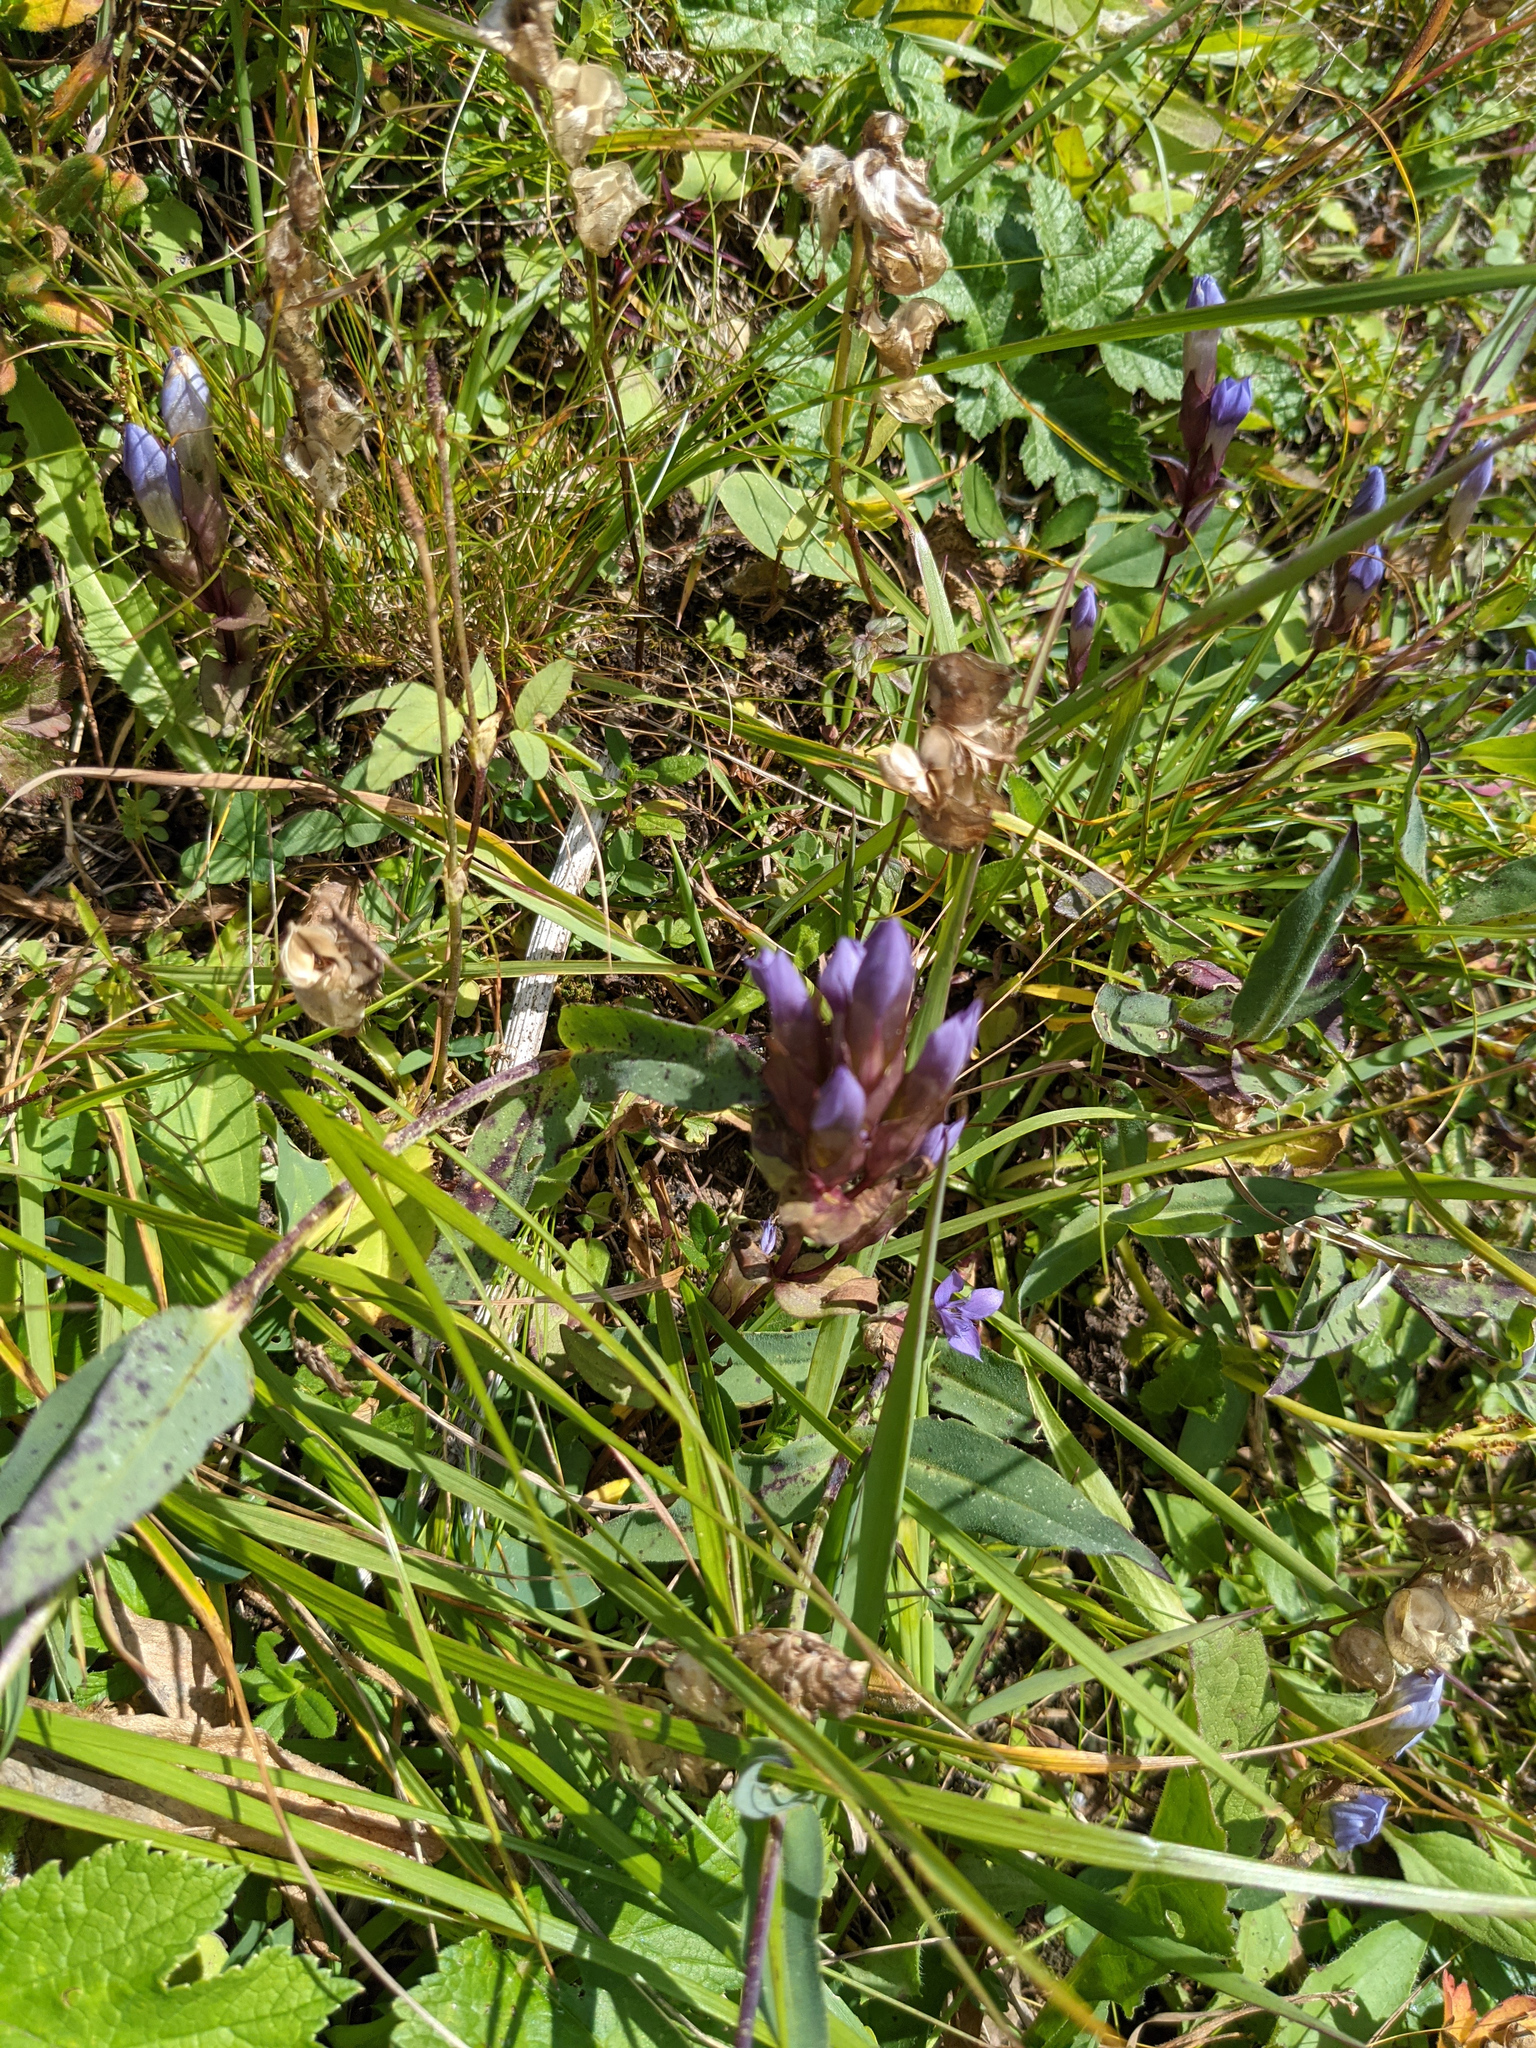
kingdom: Plantae
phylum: Tracheophyta
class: Magnoliopsida
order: Gentianales
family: Gentianaceae
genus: Gentianella
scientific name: Gentianella campestris
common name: Field gentian
